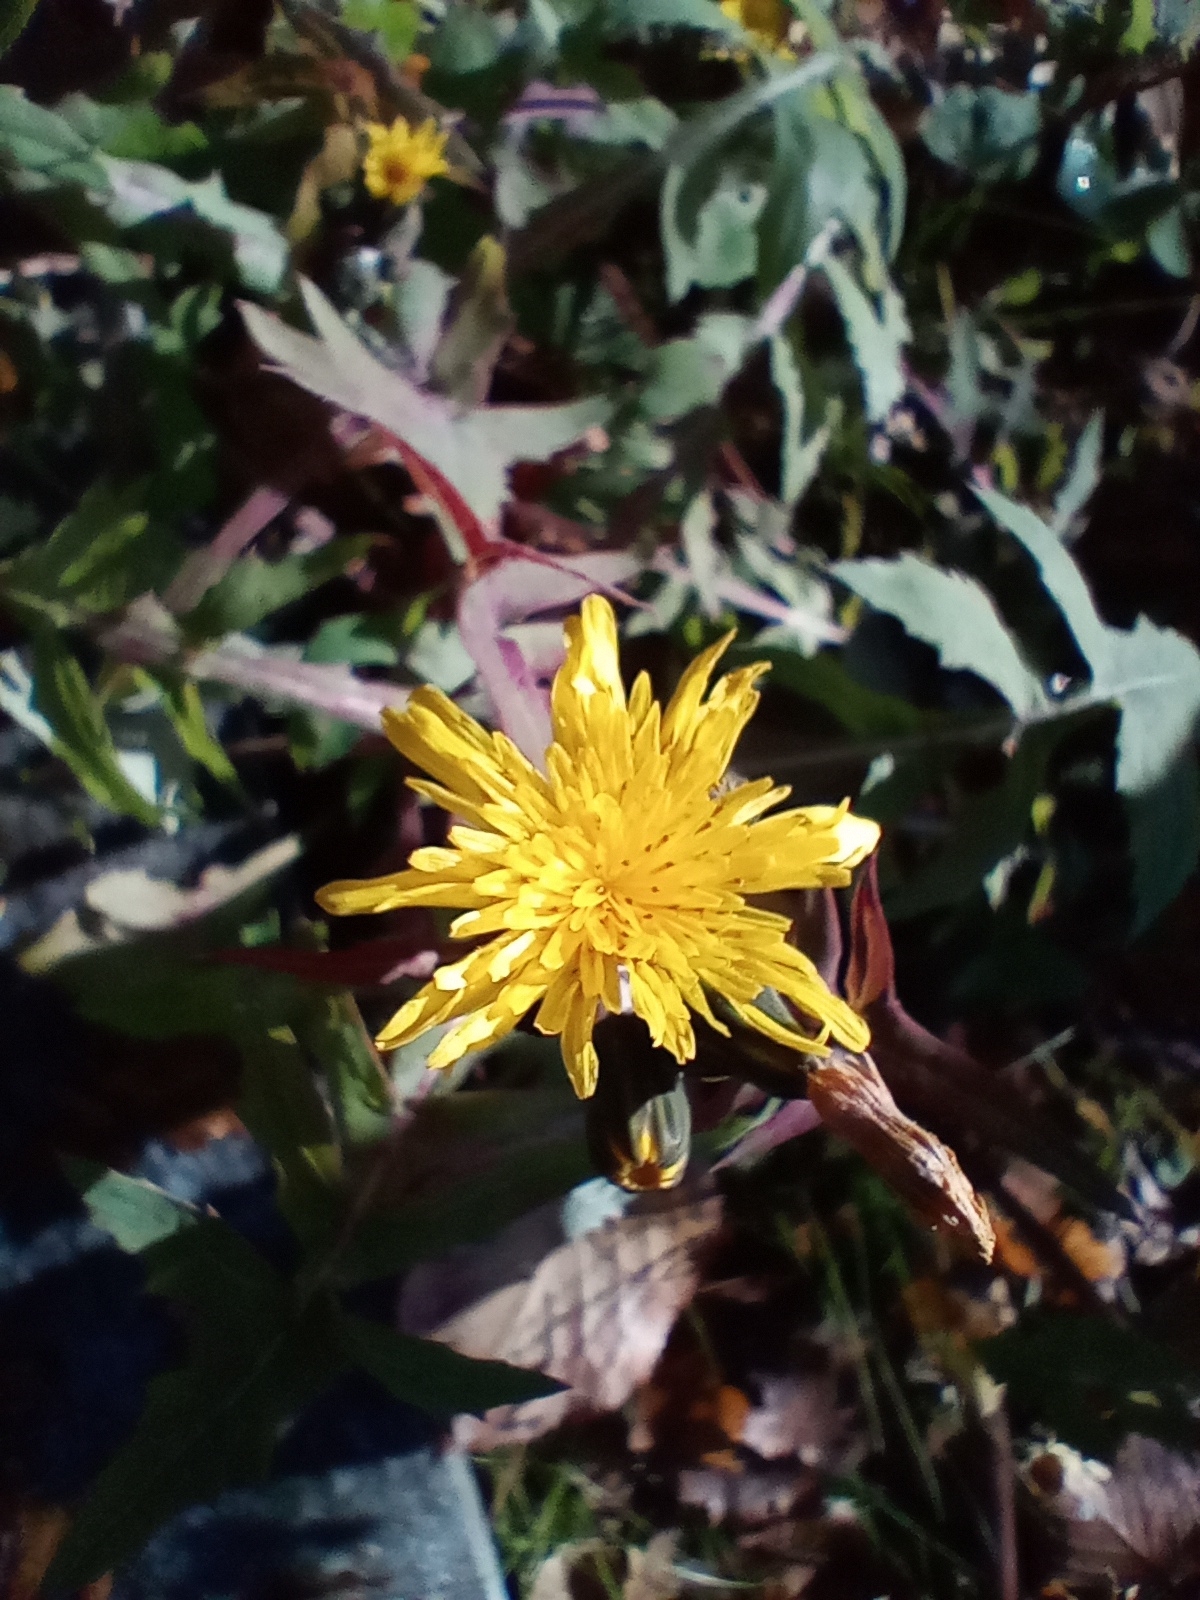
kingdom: Plantae
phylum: Tracheophyta
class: Magnoliopsida
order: Asterales
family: Asteraceae
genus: Sonchus
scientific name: Sonchus oleraceus
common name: Common sowthistle
